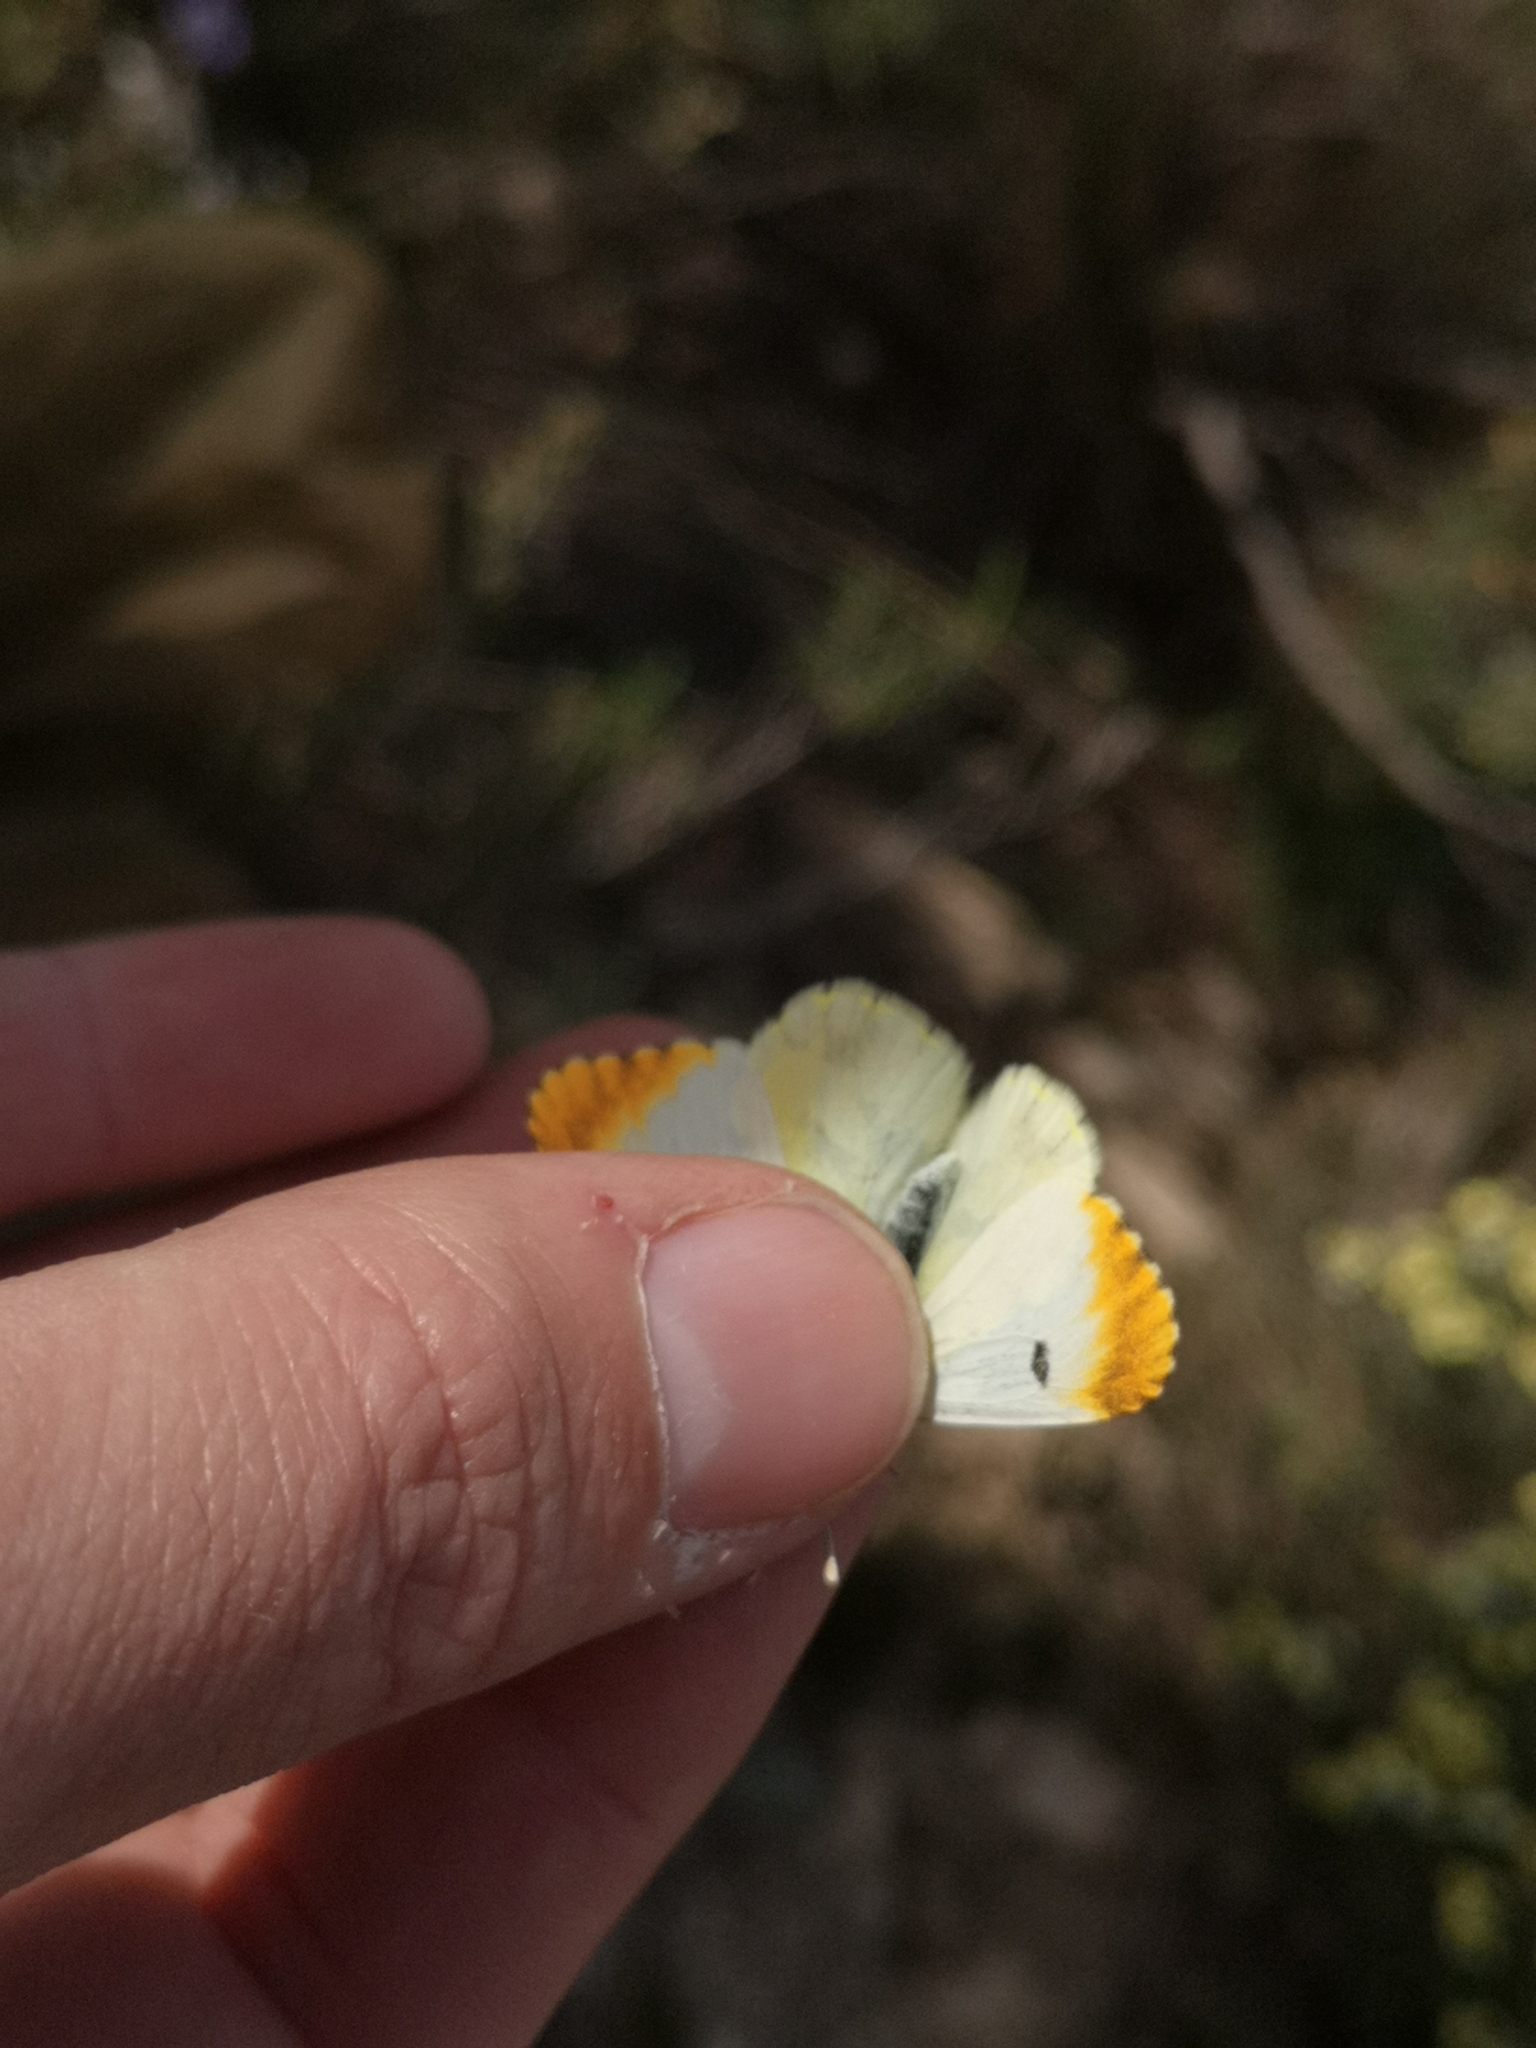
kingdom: Animalia
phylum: Arthropoda
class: Insecta
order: Lepidoptera
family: Pieridae
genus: Anthocharis
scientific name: Anthocharis euphenoides
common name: Provence orange-tip
